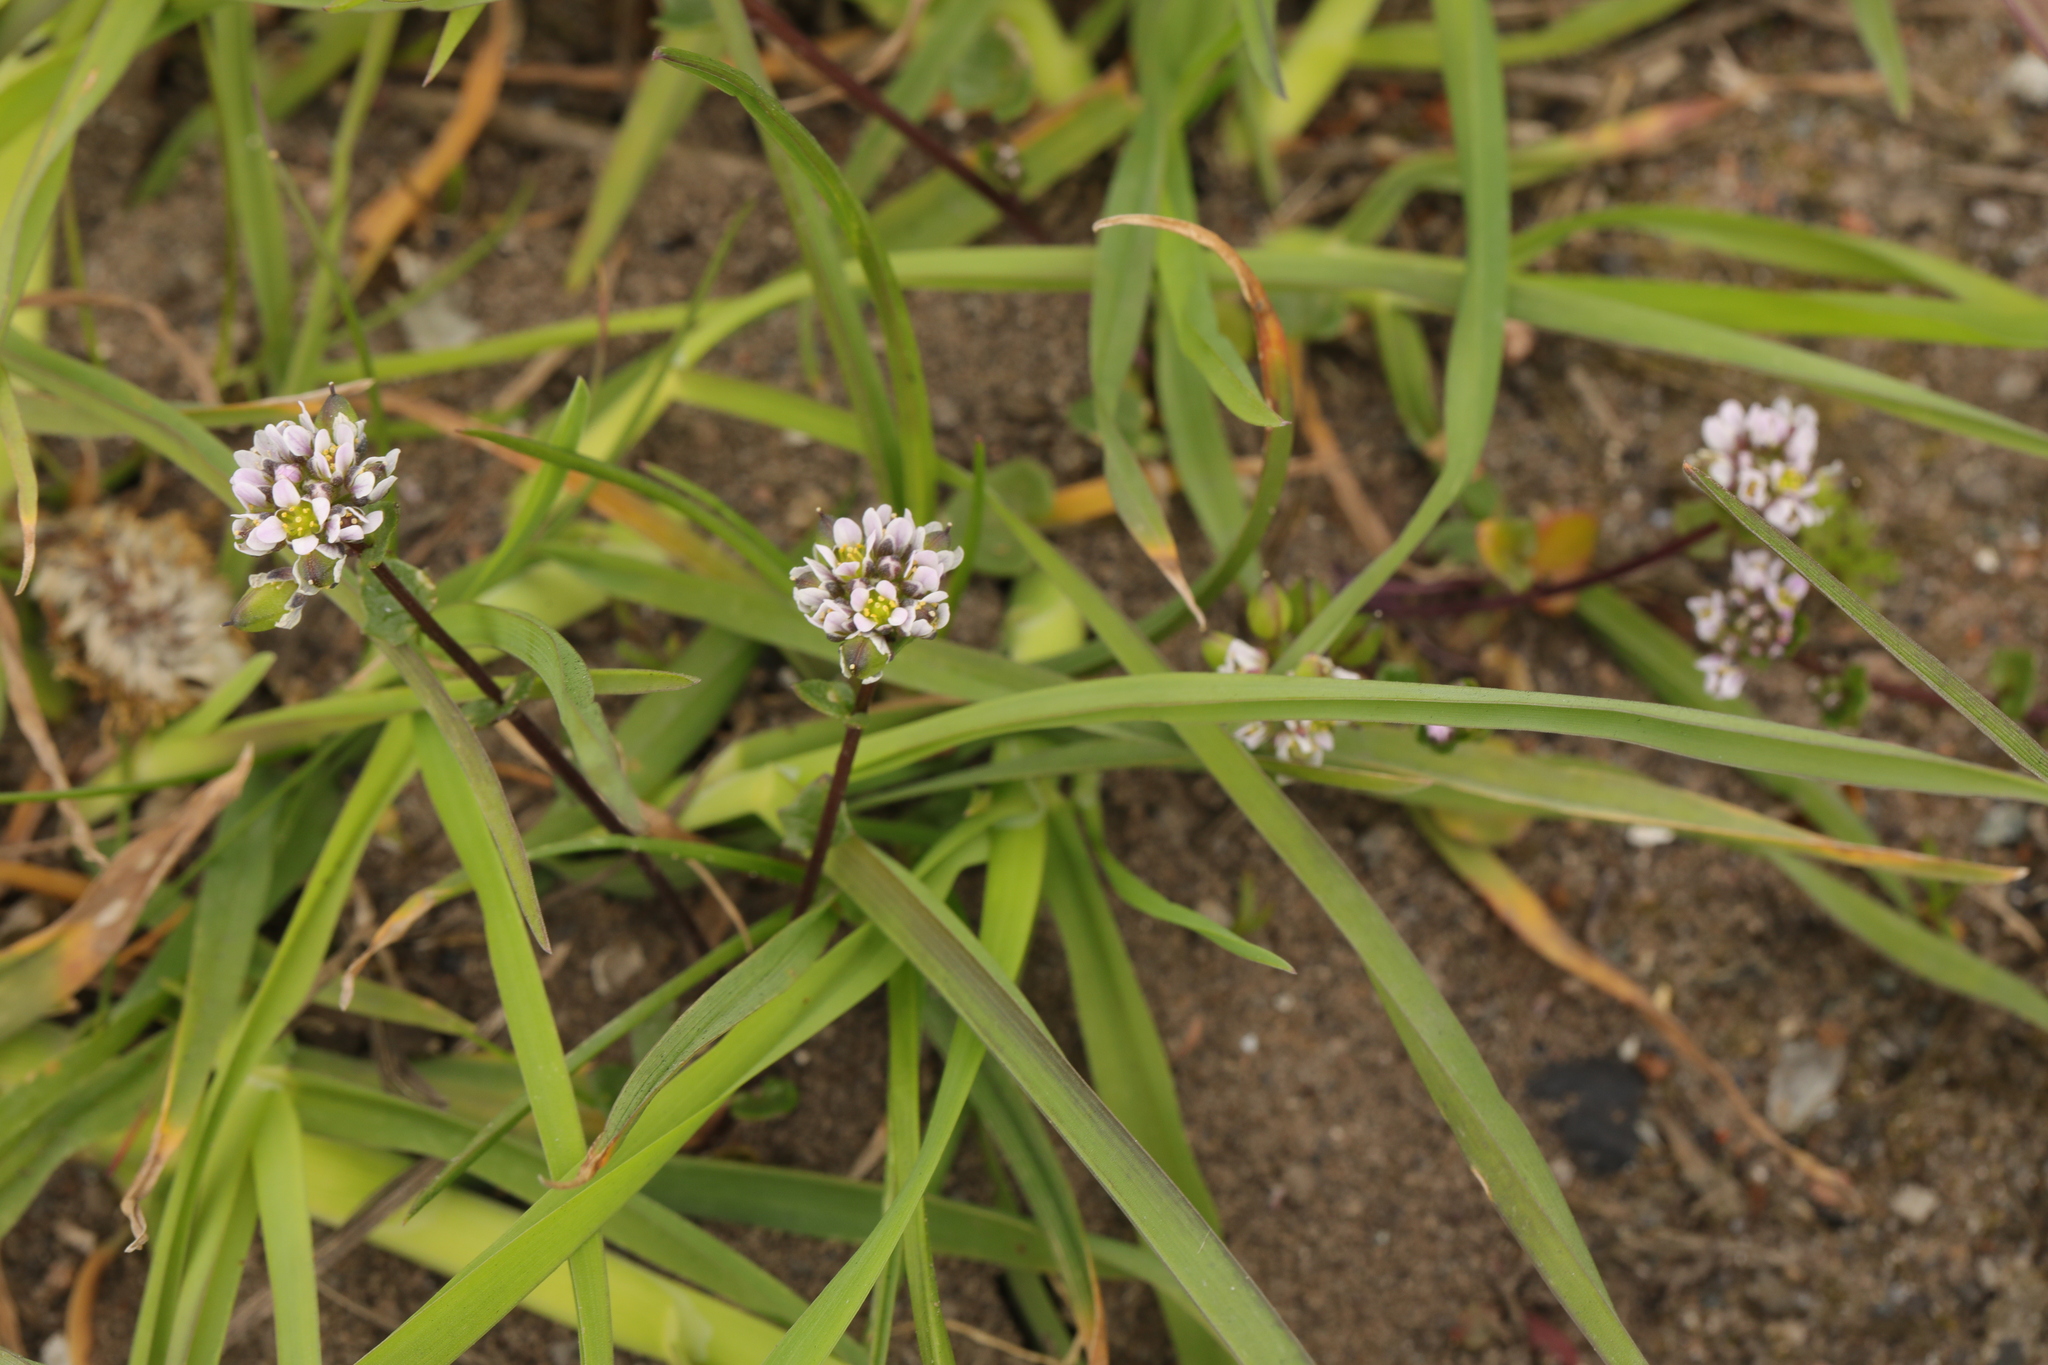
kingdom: Plantae
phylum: Tracheophyta
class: Magnoliopsida
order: Brassicales
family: Brassicaceae
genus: Cochlearia
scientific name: Cochlearia danica
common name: Early scurvygrass
